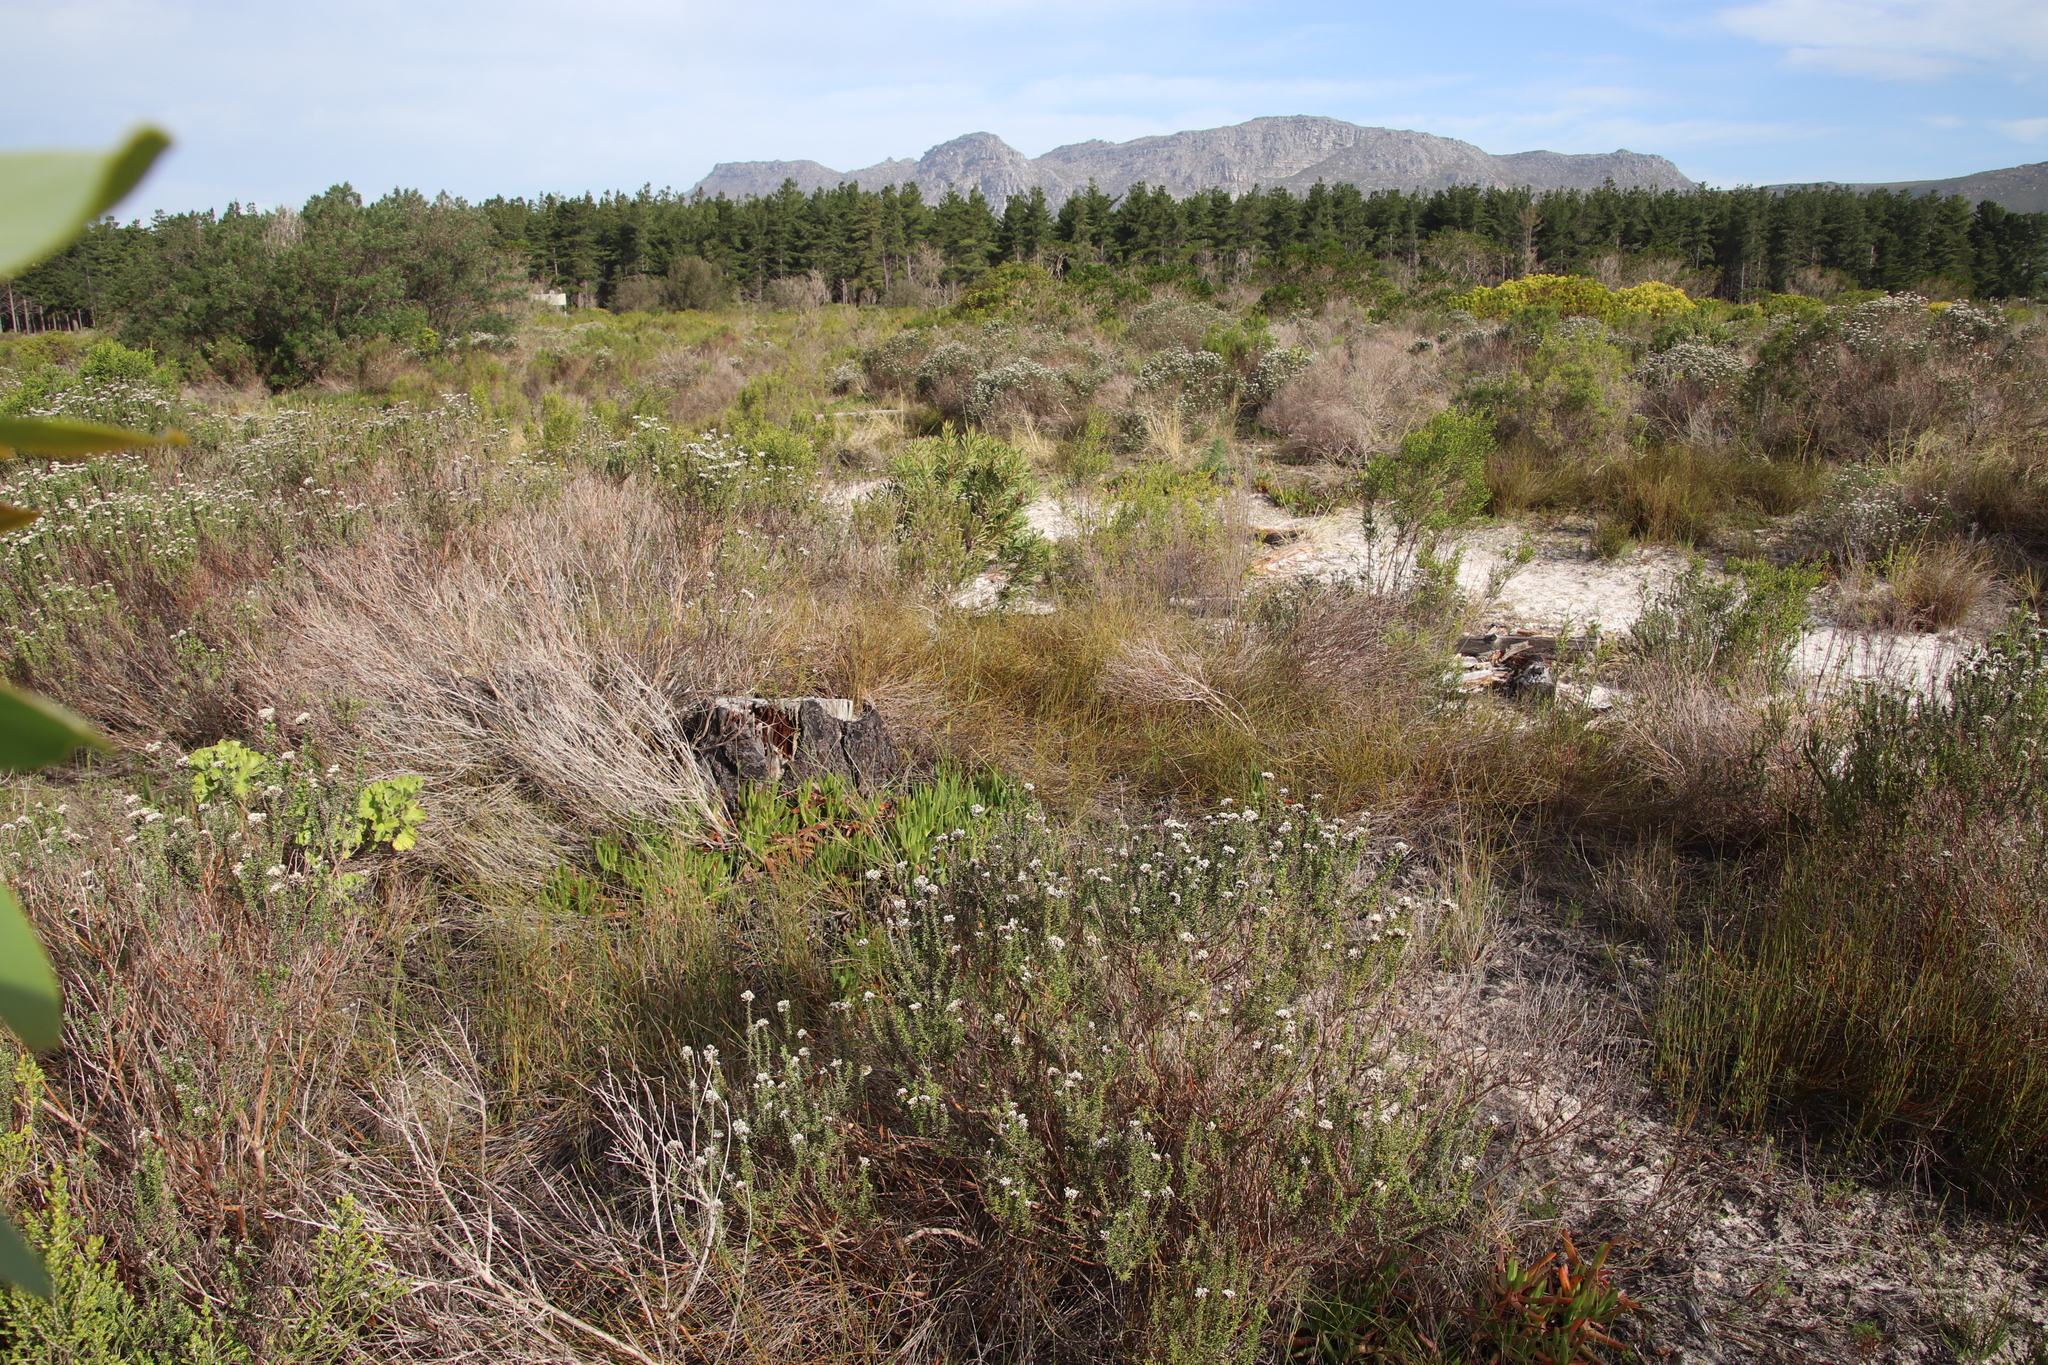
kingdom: Plantae
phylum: Tracheophyta
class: Liliopsida
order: Poales
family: Restionaceae
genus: Willdenowia
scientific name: Willdenowia sulcata
